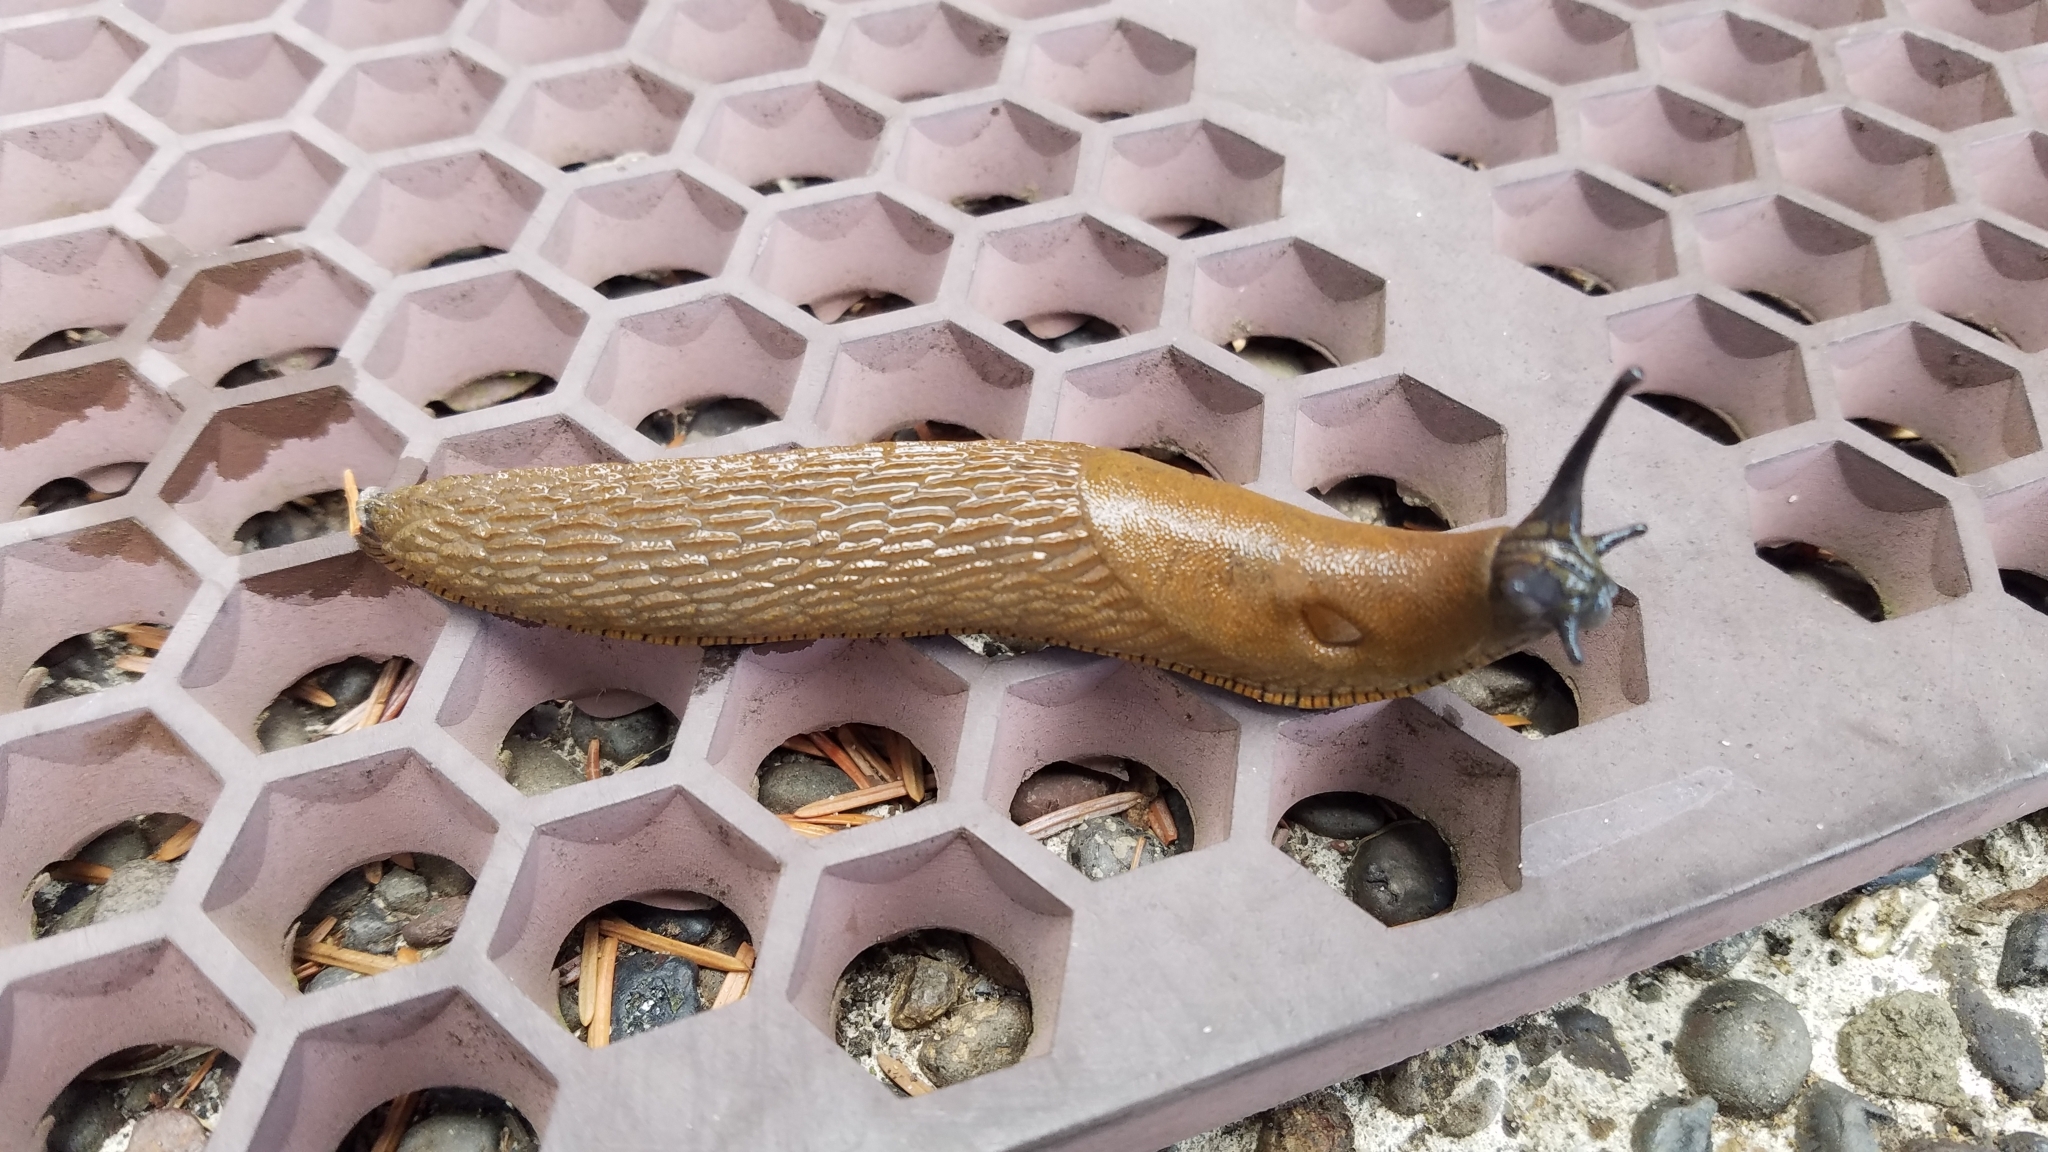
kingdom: Animalia
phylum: Mollusca
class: Gastropoda
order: Stylommatophora
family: Arionidae
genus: Arion
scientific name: Arion rufus
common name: Chocolate arion
